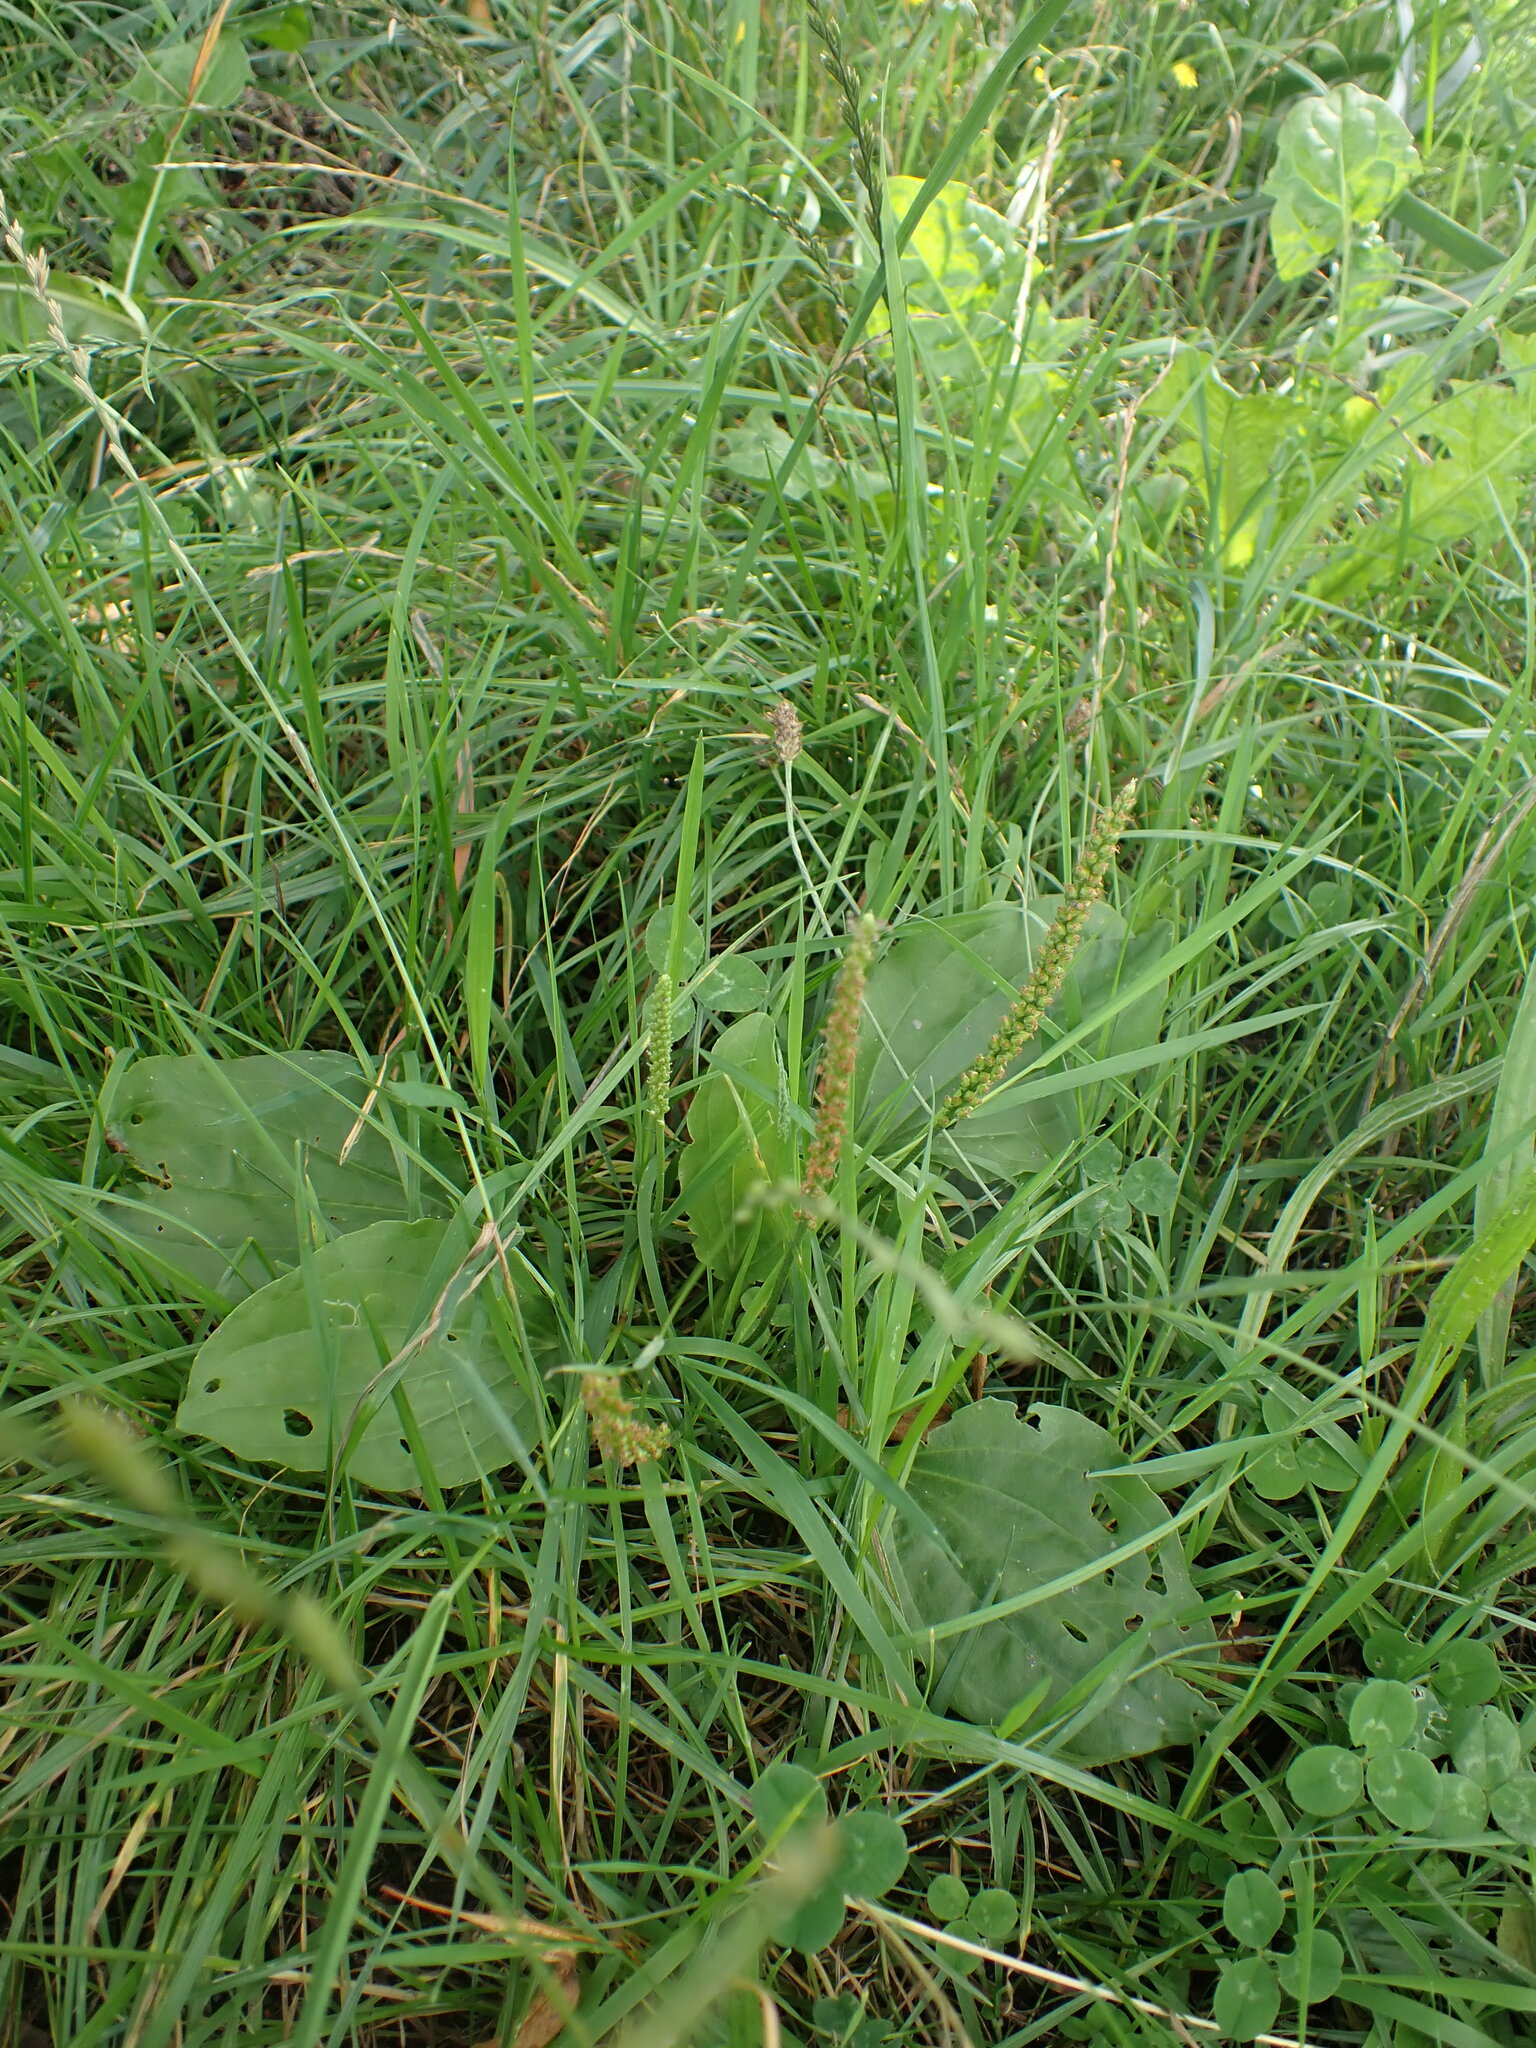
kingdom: Plantae
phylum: Tracheophyta
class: Magnoliopsida
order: Lamiales
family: Plantaginaceae
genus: Plantago
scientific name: Plantago major
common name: Common plantain
